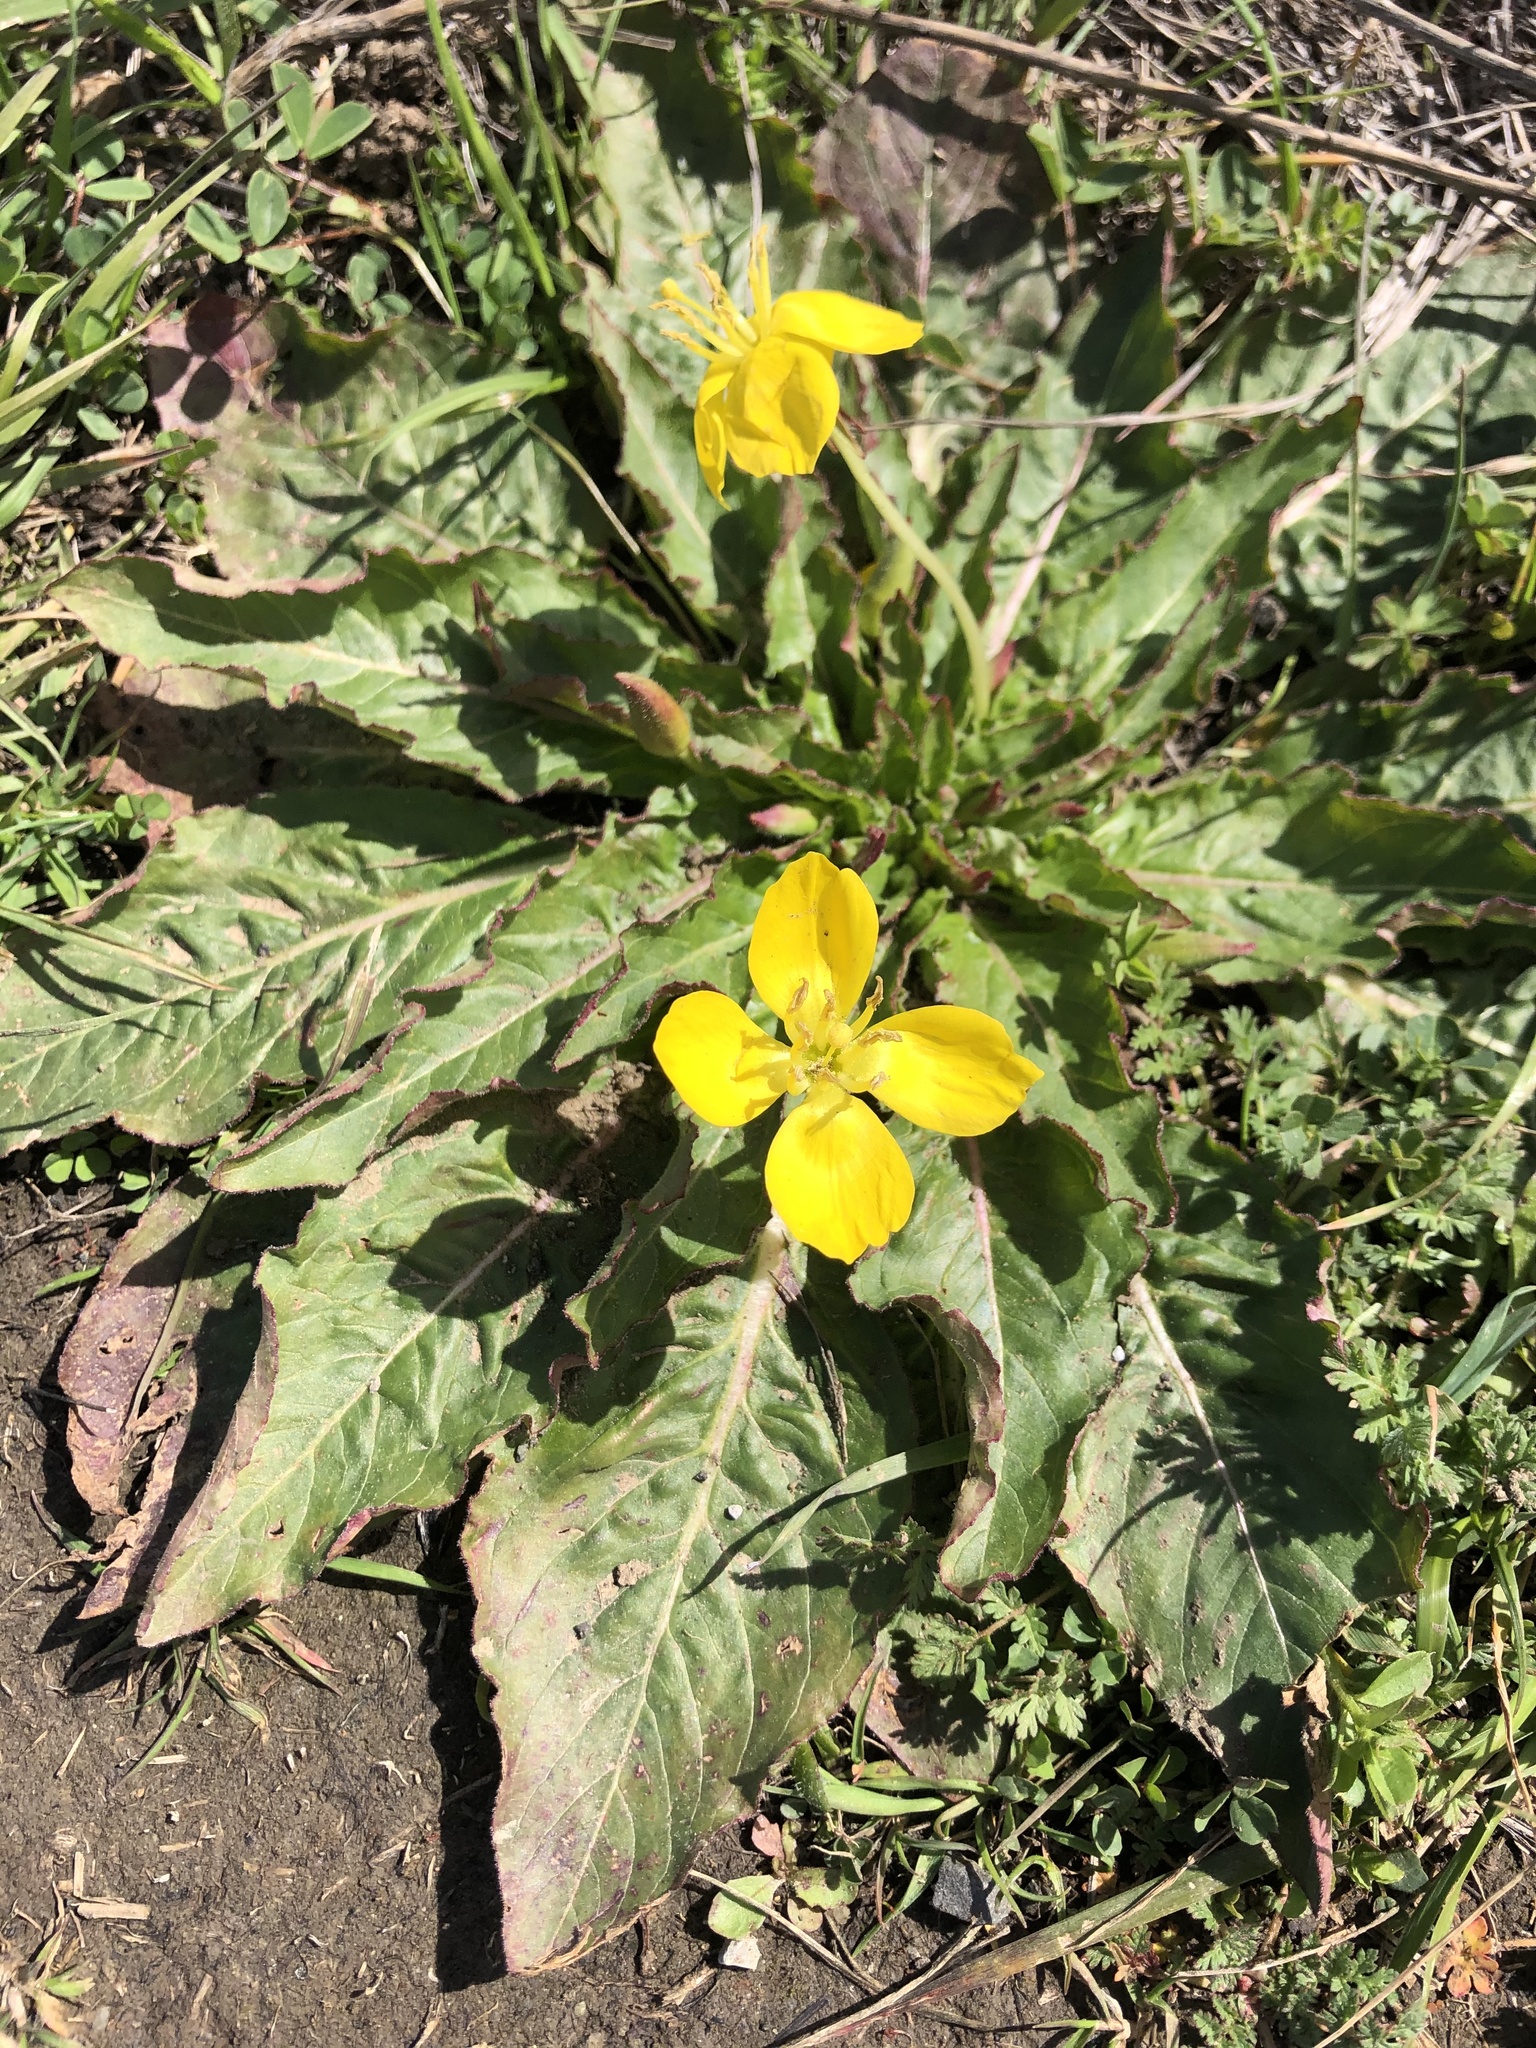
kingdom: Plantae
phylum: Tracheophyta
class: Magnoliopsida
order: Myrtales
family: Onagraceae
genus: Taraxia
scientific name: Taraxia ovata
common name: Goldeneggs
